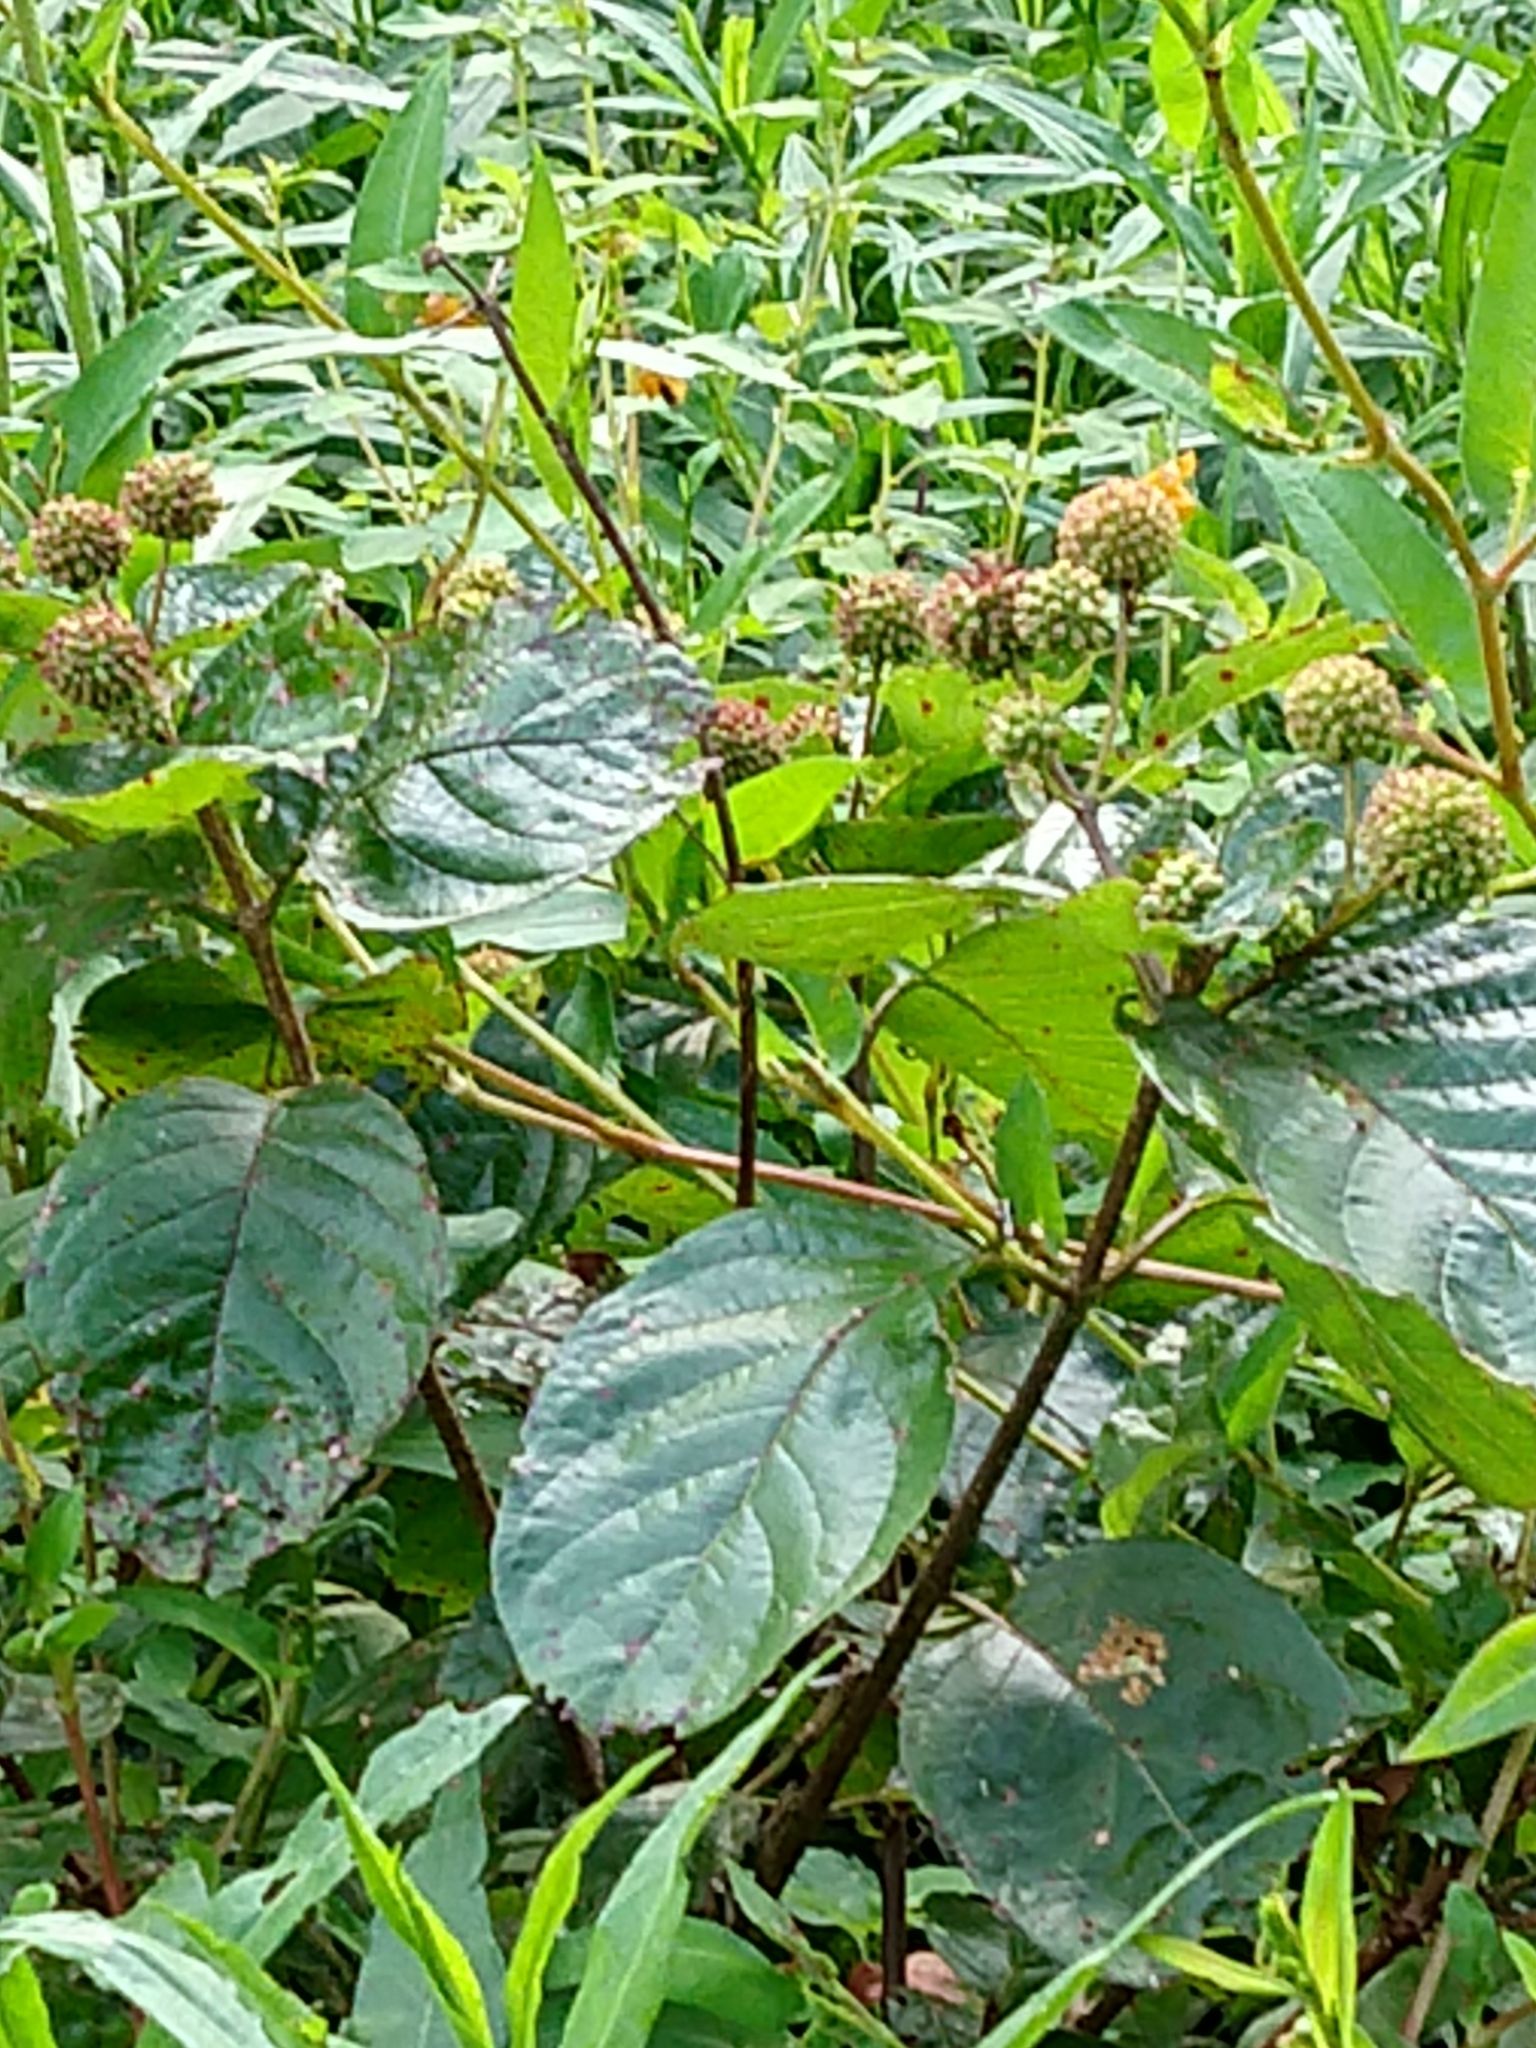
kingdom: Plantae
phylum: Tracheophyta
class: Magnoliopsida
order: Gentianales
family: Rubiaceae
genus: Cephalanthus
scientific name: Cephalanthus occidentalis
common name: Button-willow
